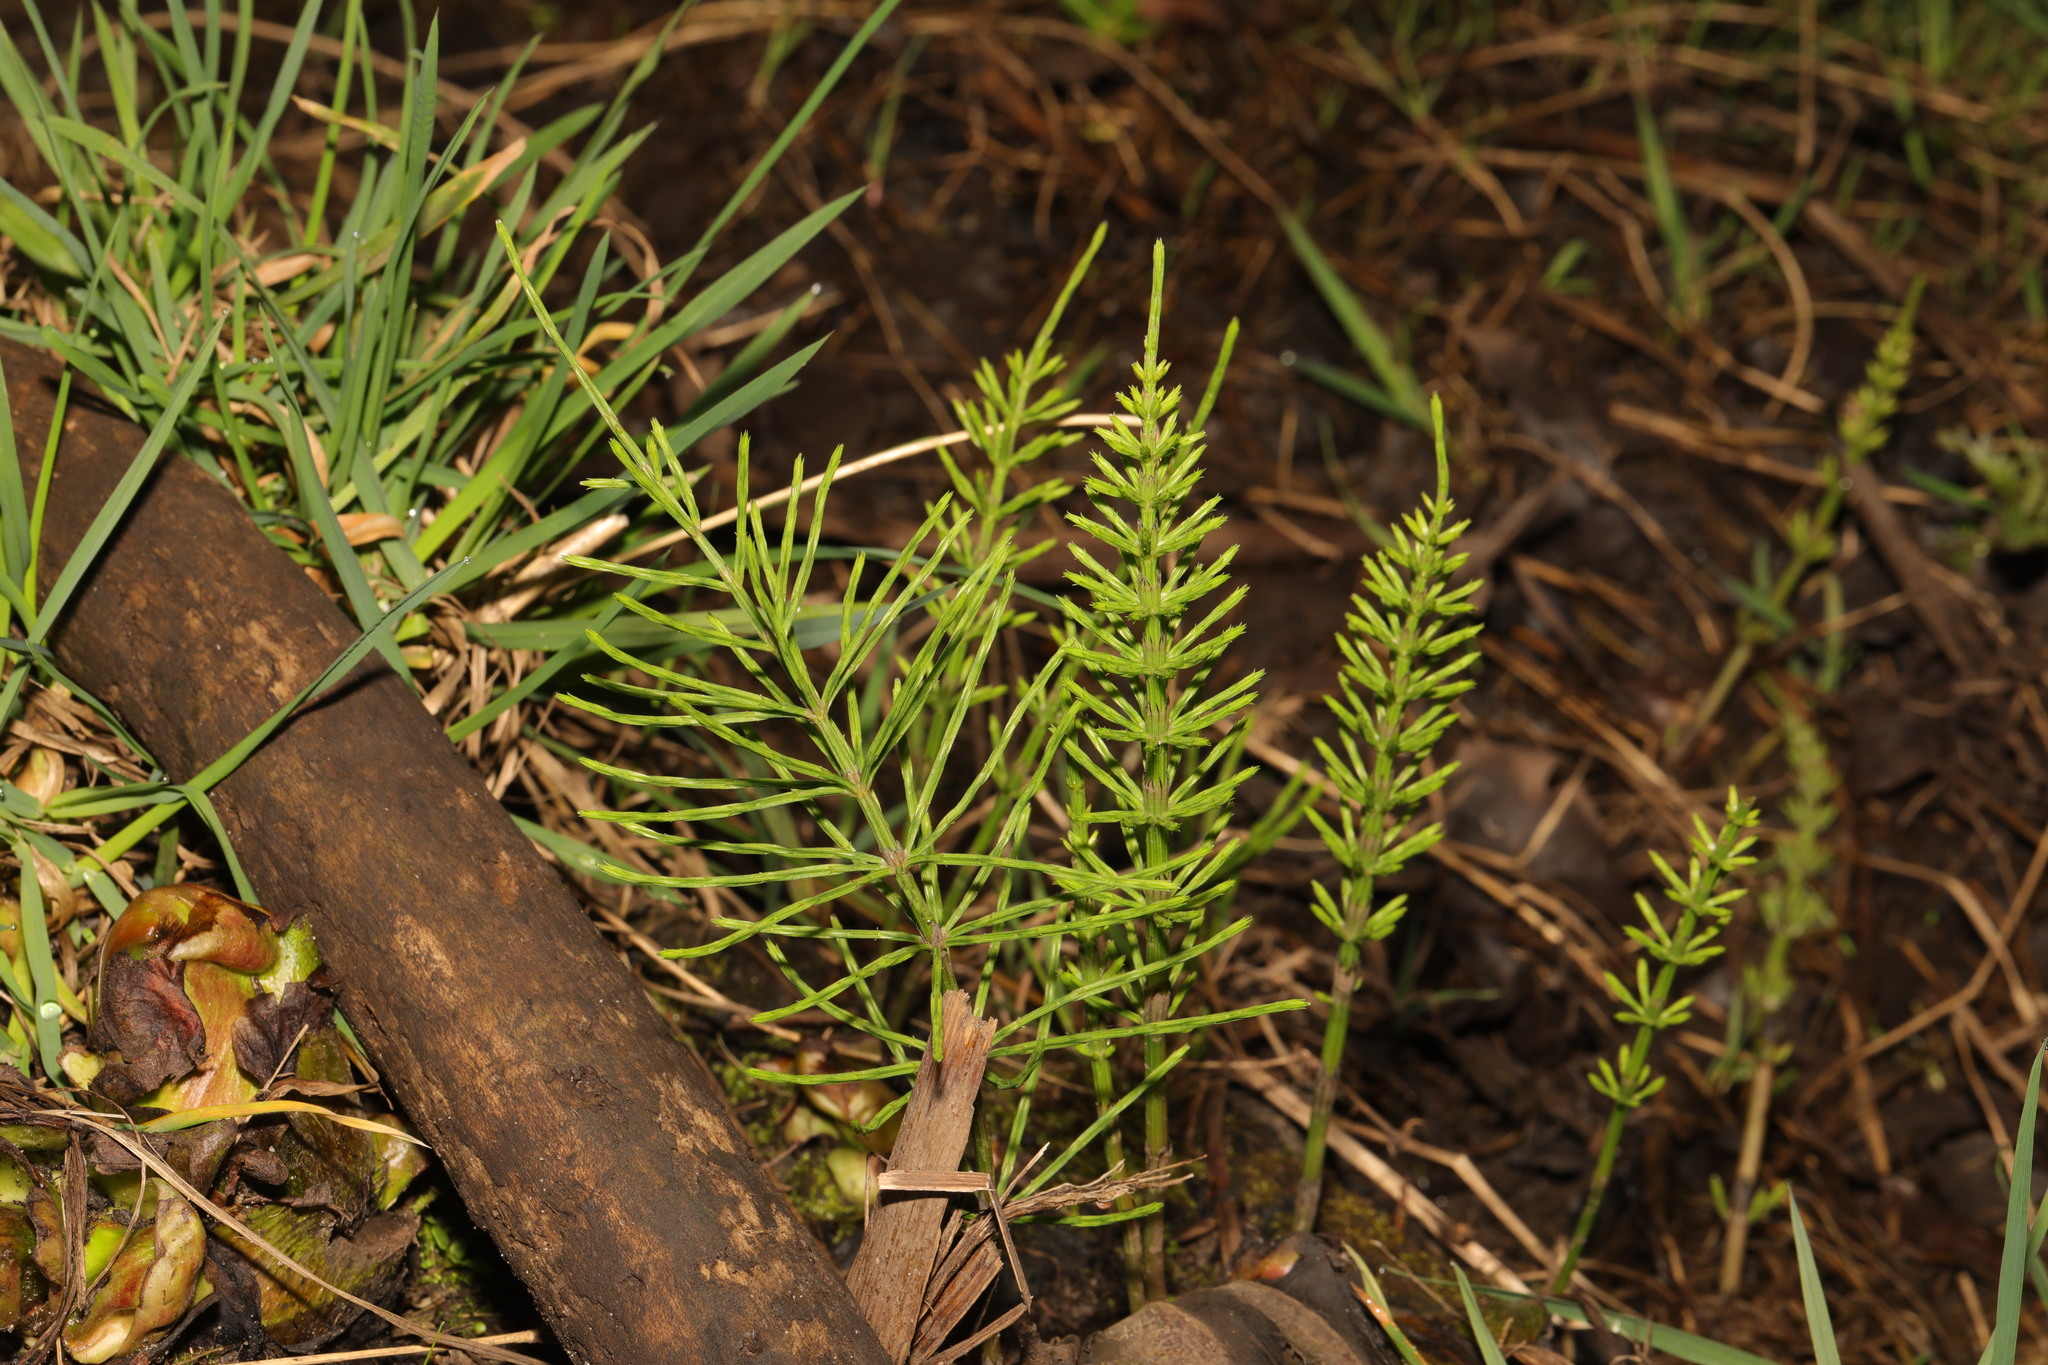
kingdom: Plantae
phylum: Tracheophyta
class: Polypodiopsida
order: Equisetales
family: Equisetaceae
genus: Equisetum
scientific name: Equisetum arvense
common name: Field horsetail
